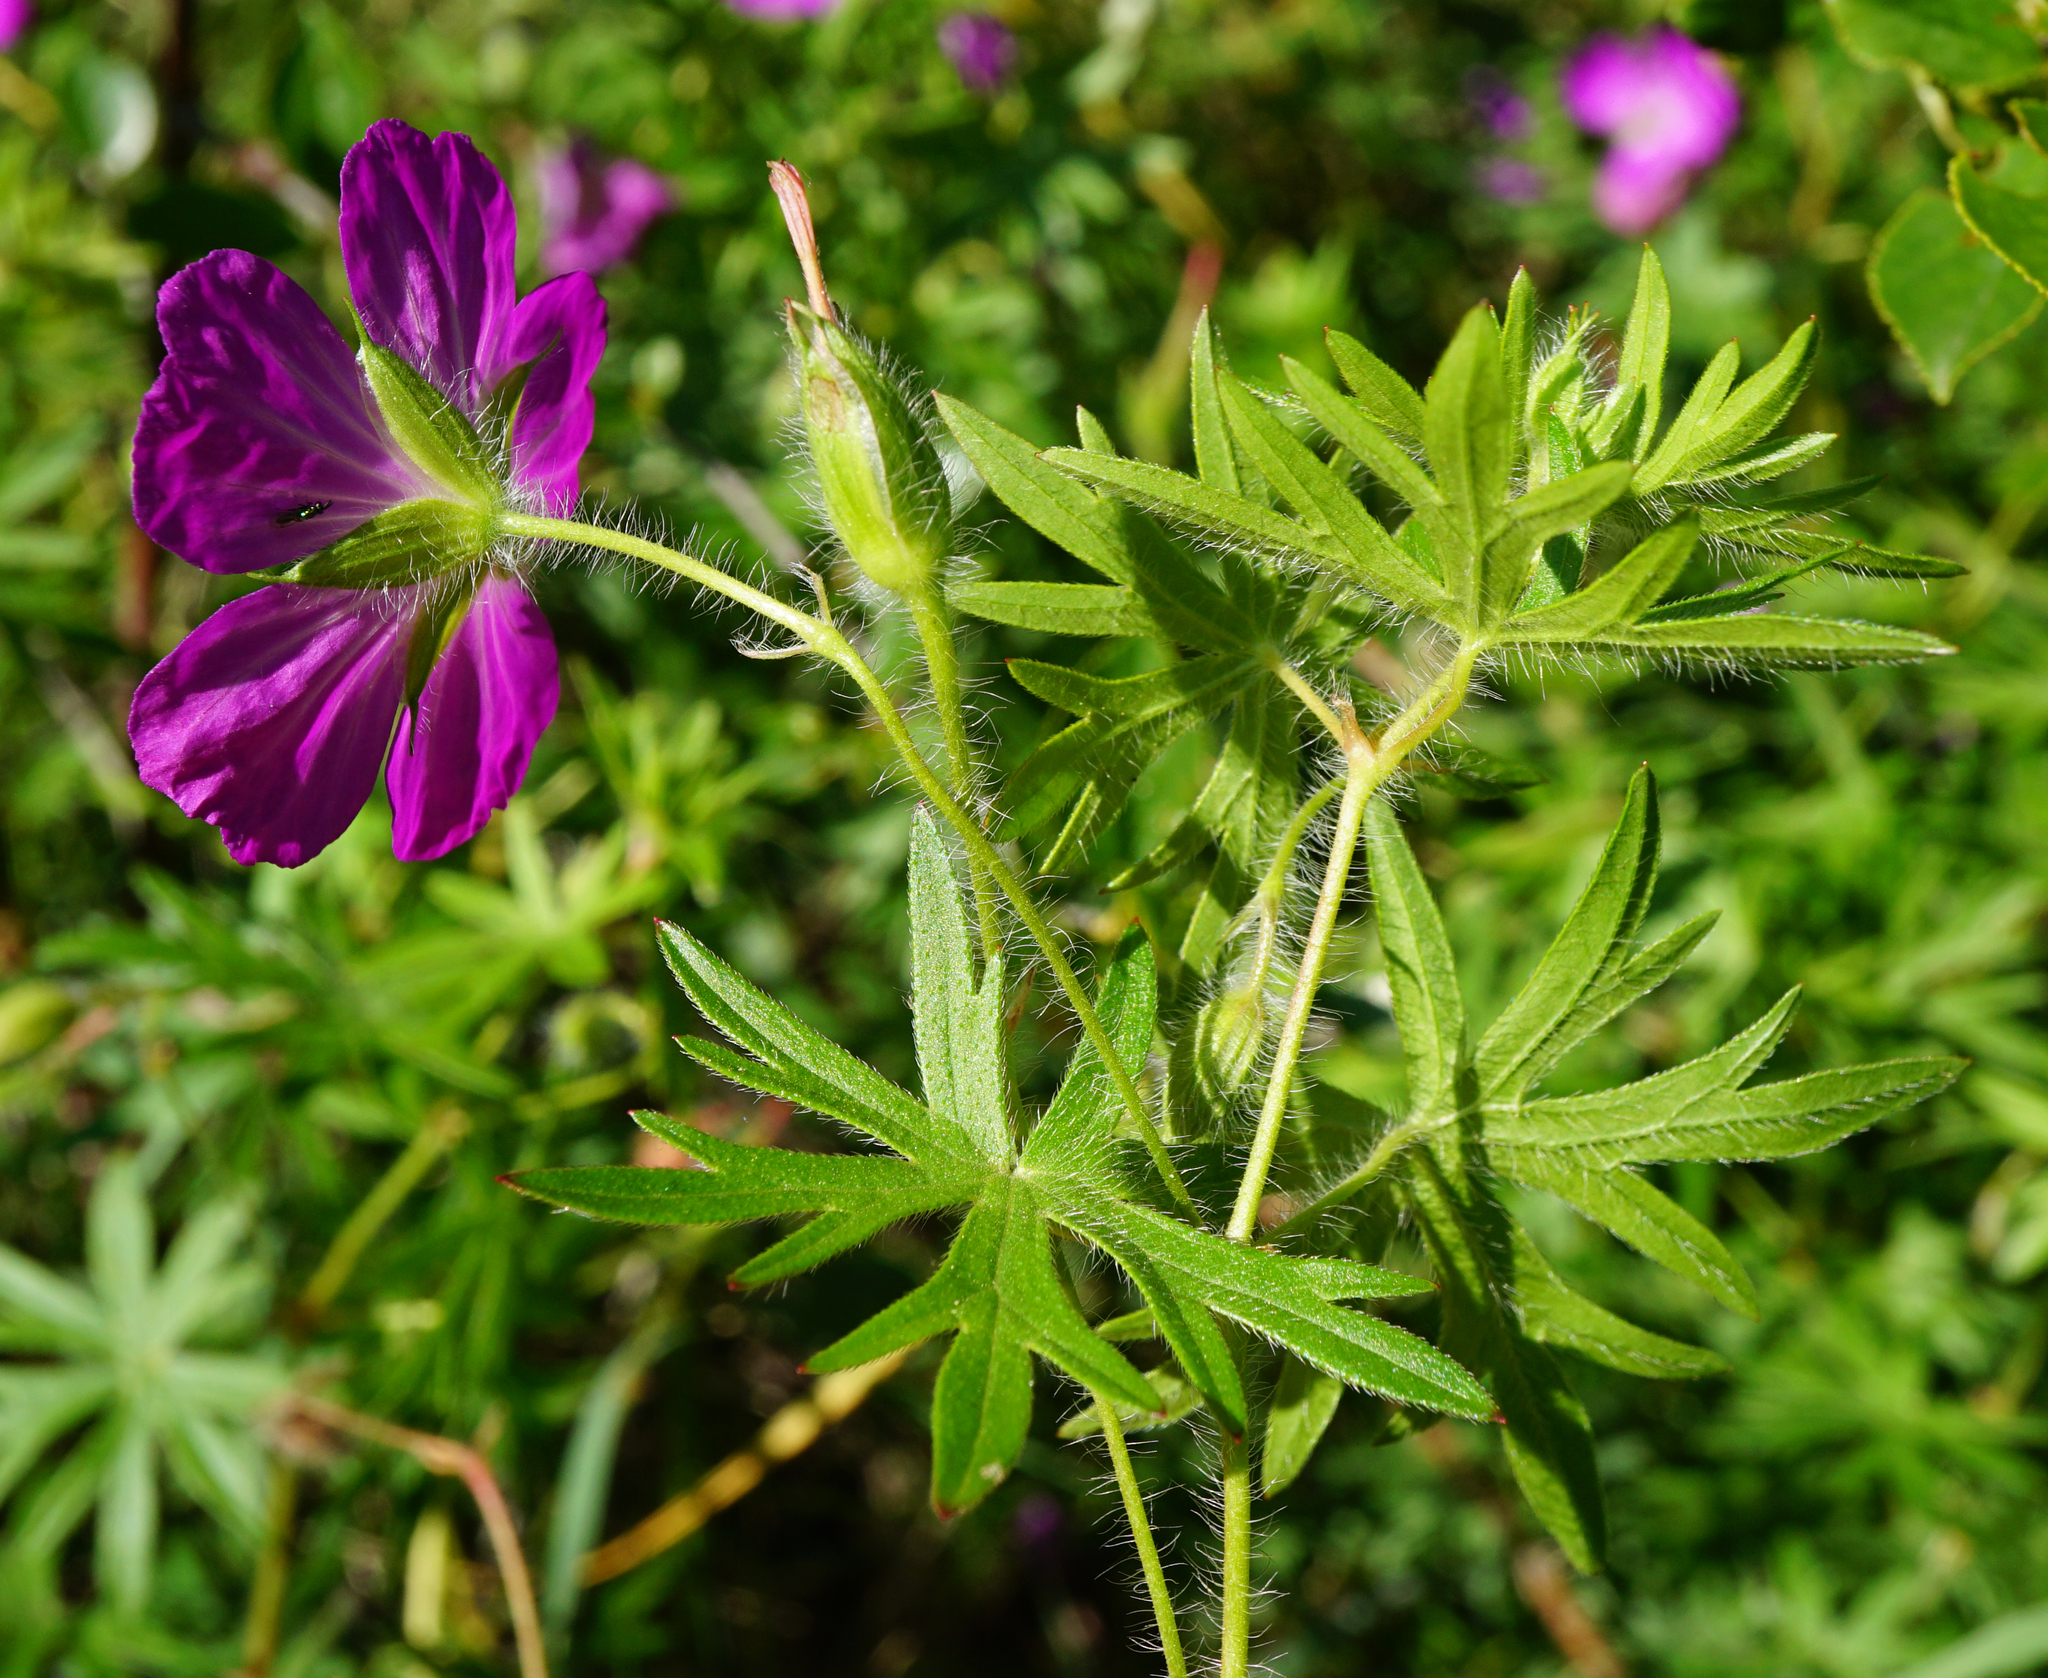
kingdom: Plantae
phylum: Tracheophyta
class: Magnoliopsida
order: Geraniales
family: Geraniaceae
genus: Geranium
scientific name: Geranium sanguineum
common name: Bloody crane's-bill
